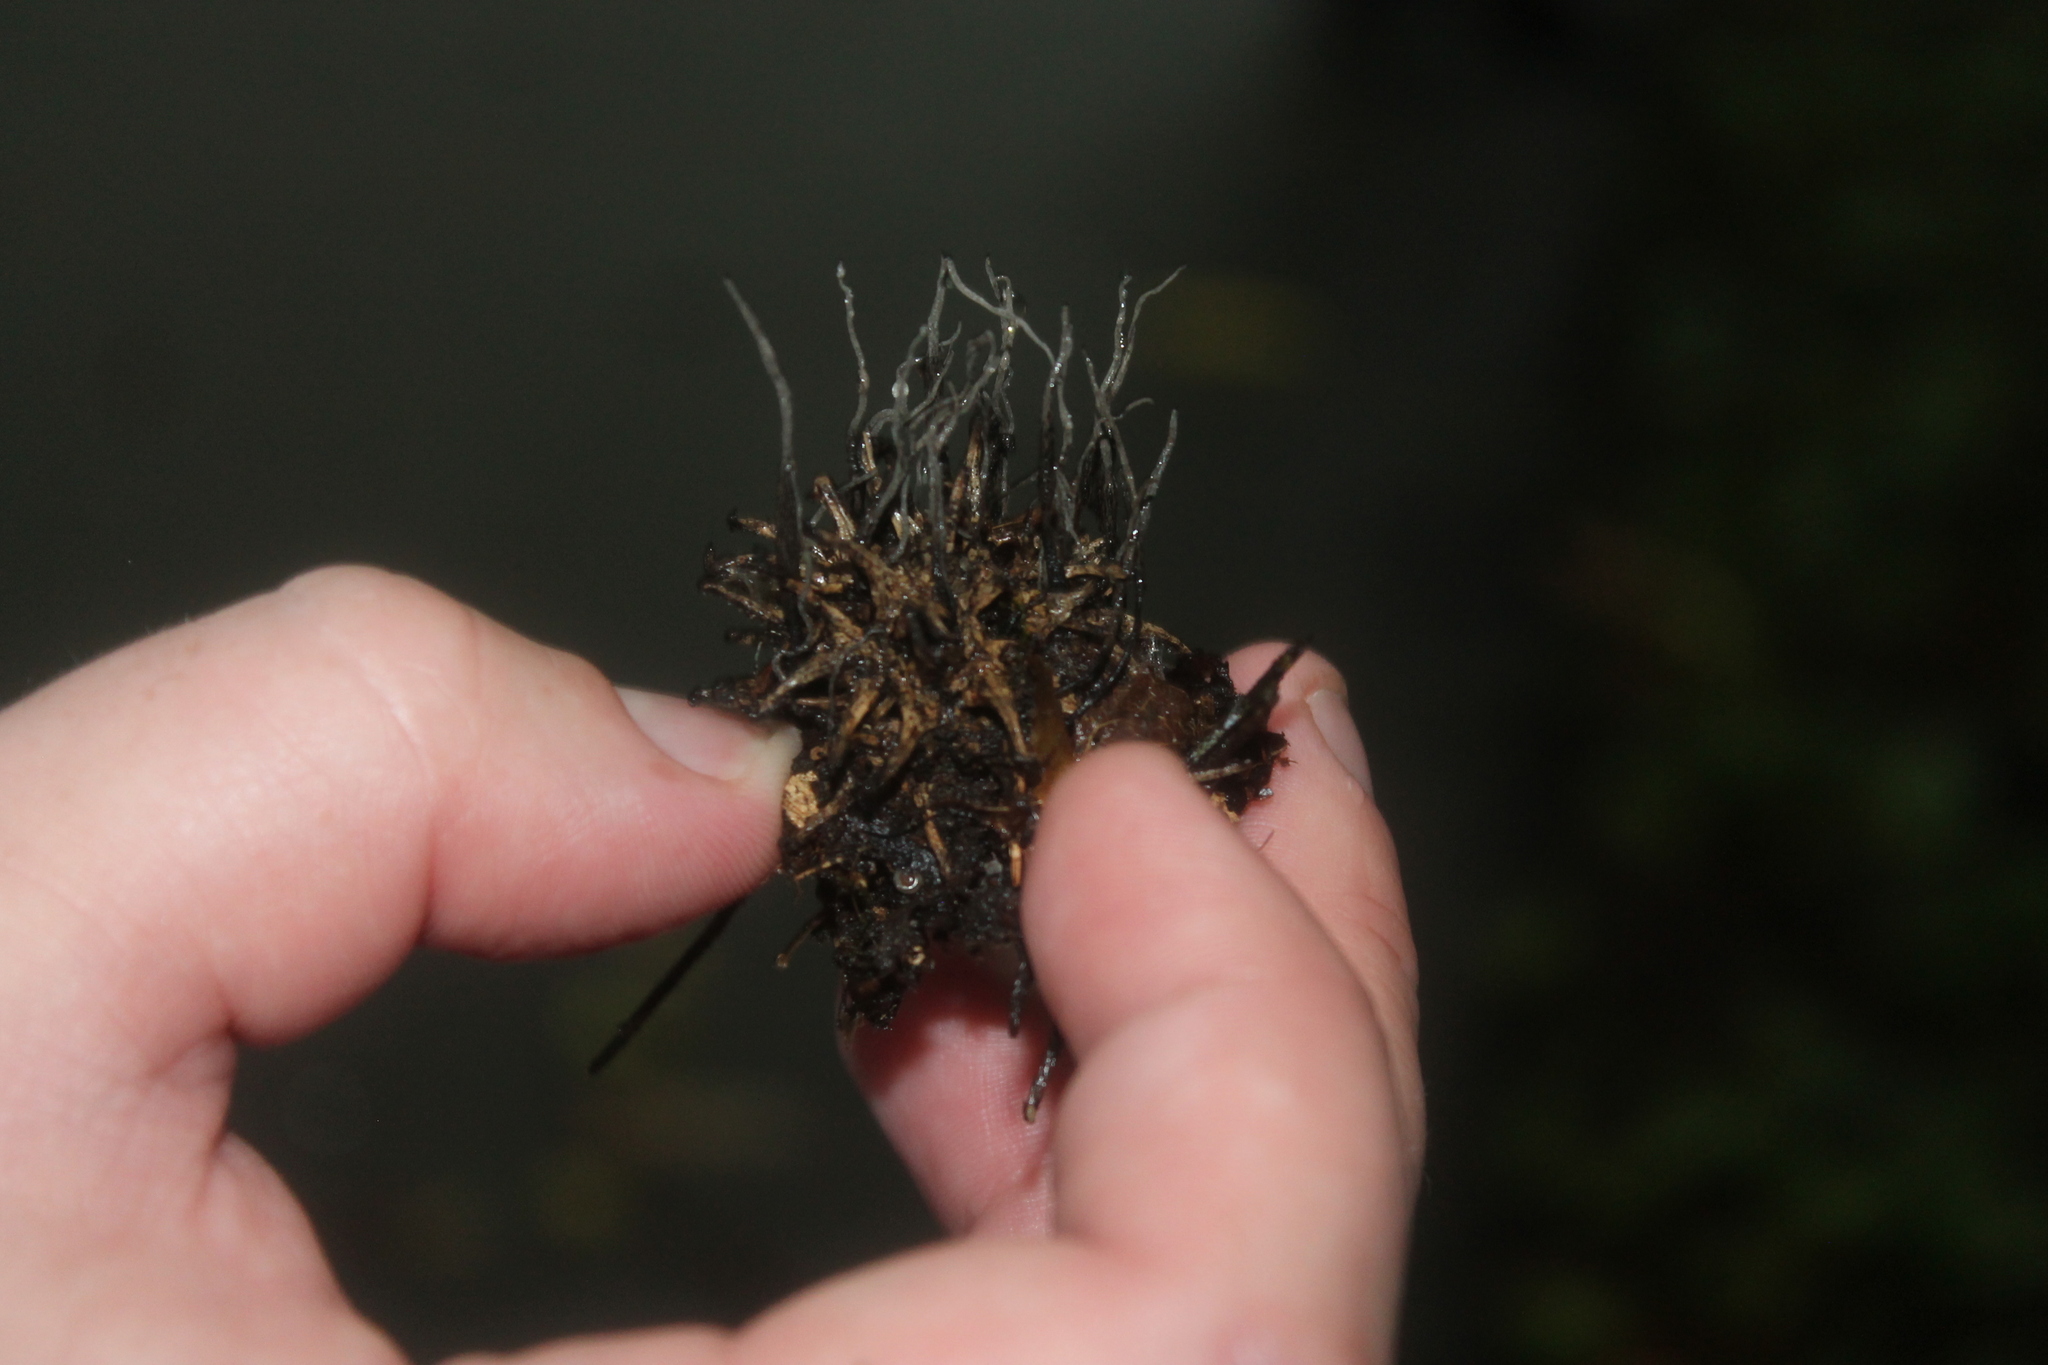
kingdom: Fungi
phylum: Ascomycota
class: Sordariomycetes
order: Xylariales
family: Xylariaceae
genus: Xylaria
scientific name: Xylaria liquidambaris
